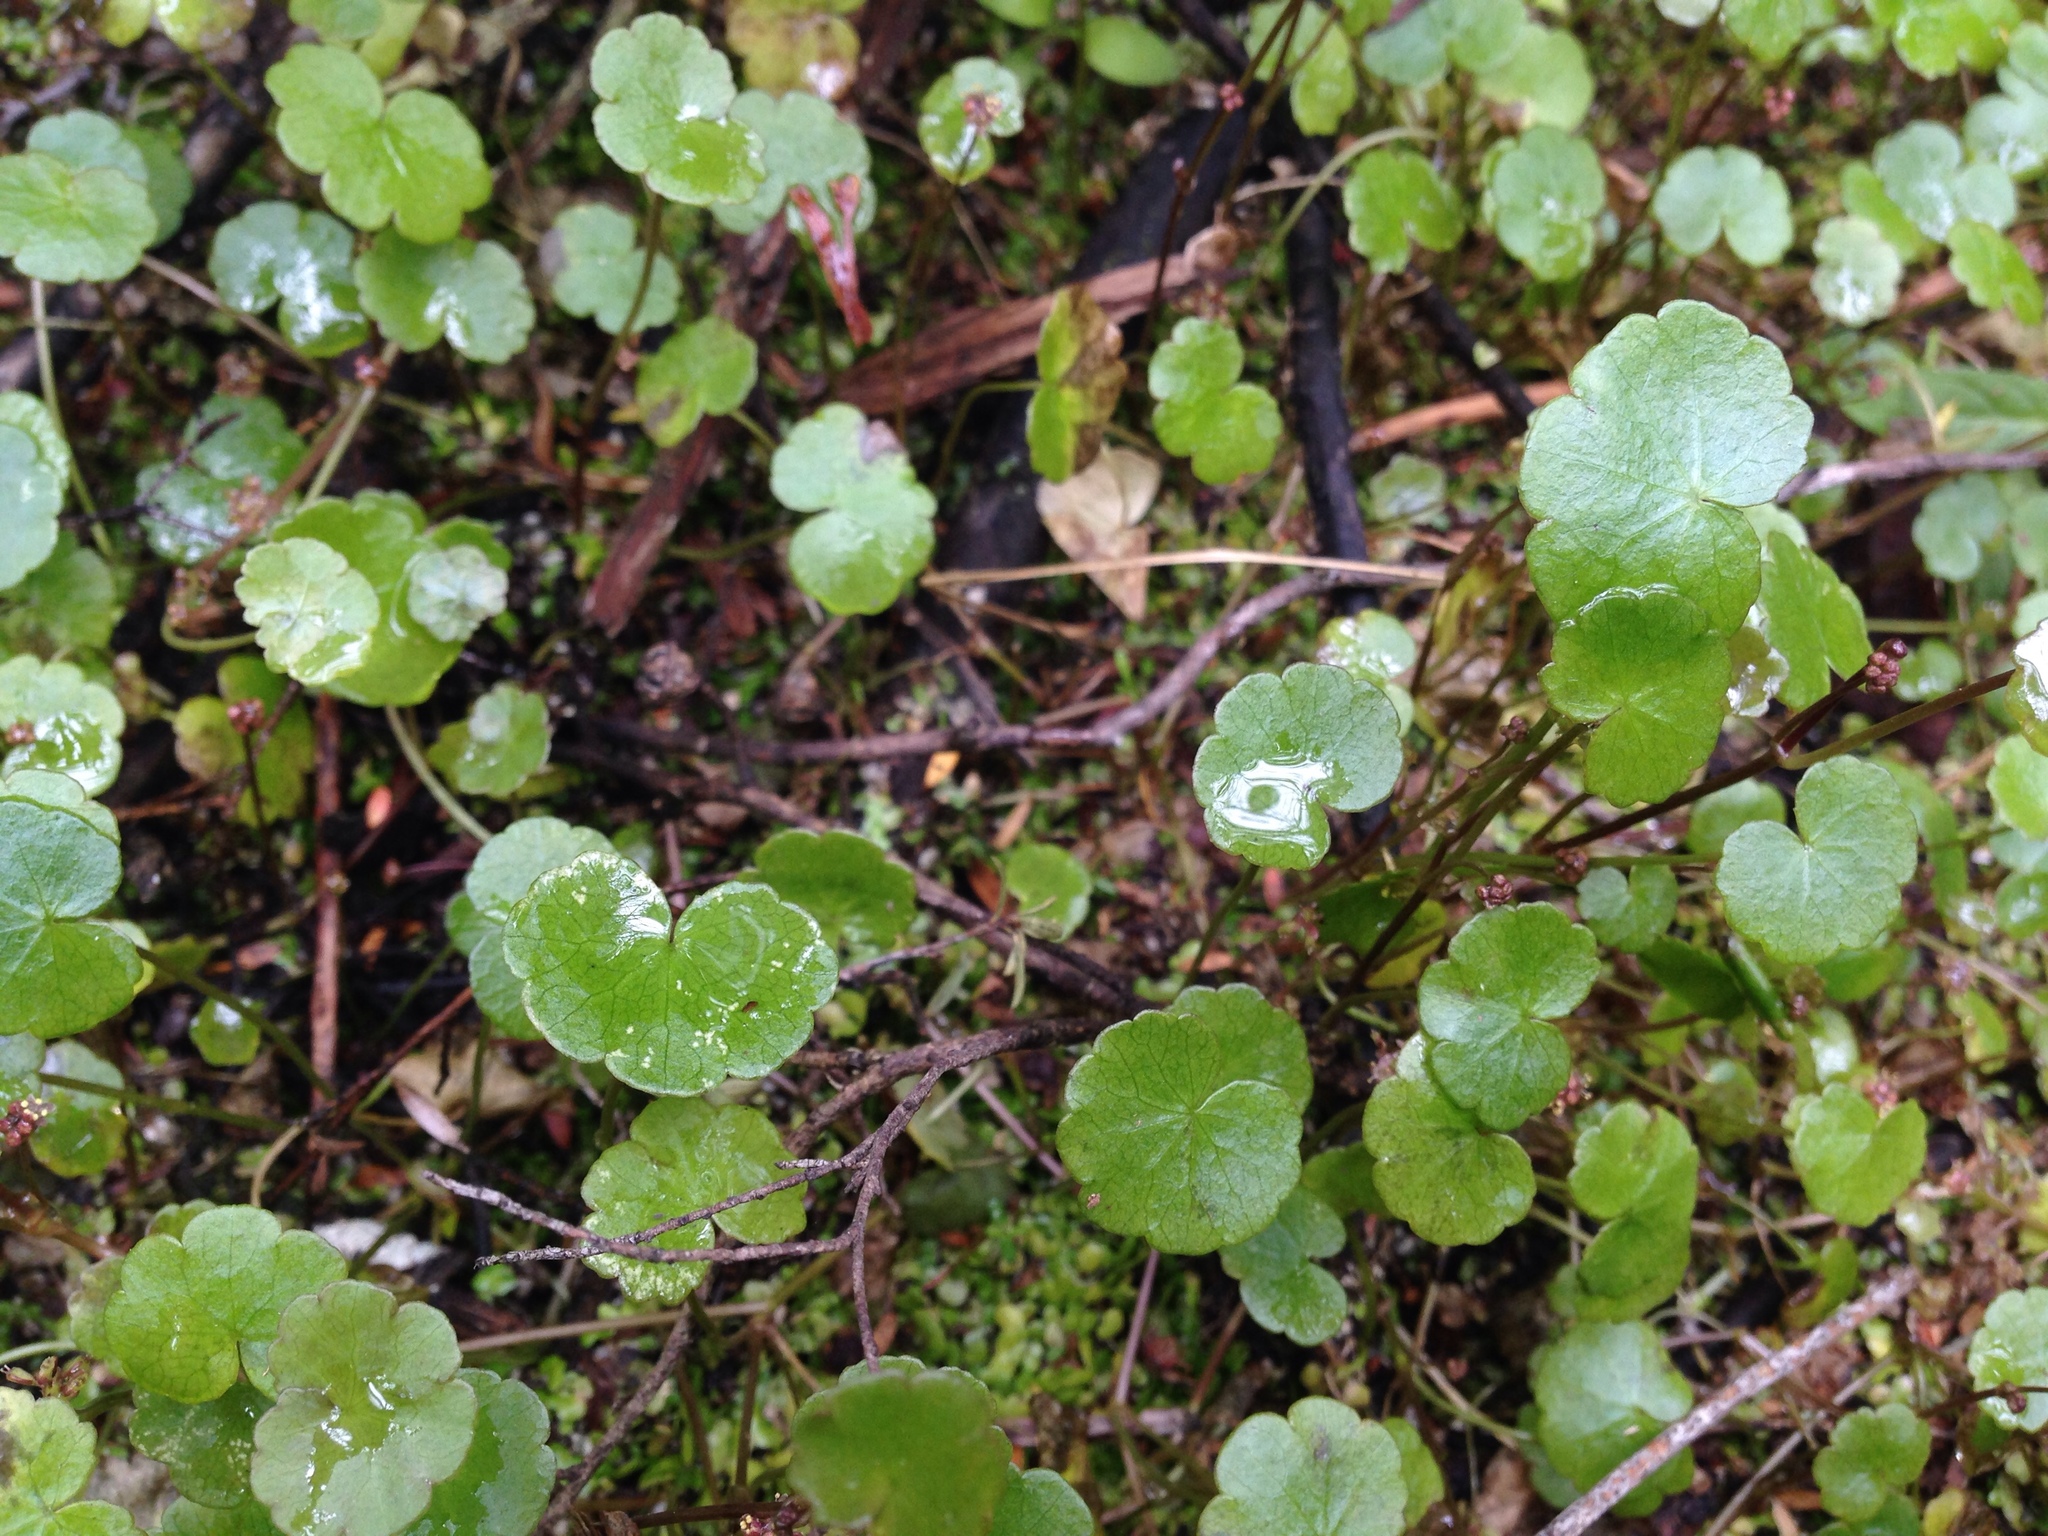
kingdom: Plantae
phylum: Tracheophyta
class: Magnoliopsida
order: Apiales
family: Araliaceae
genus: Hydrocotyle
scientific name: Hydrocotyle pterocarpa
